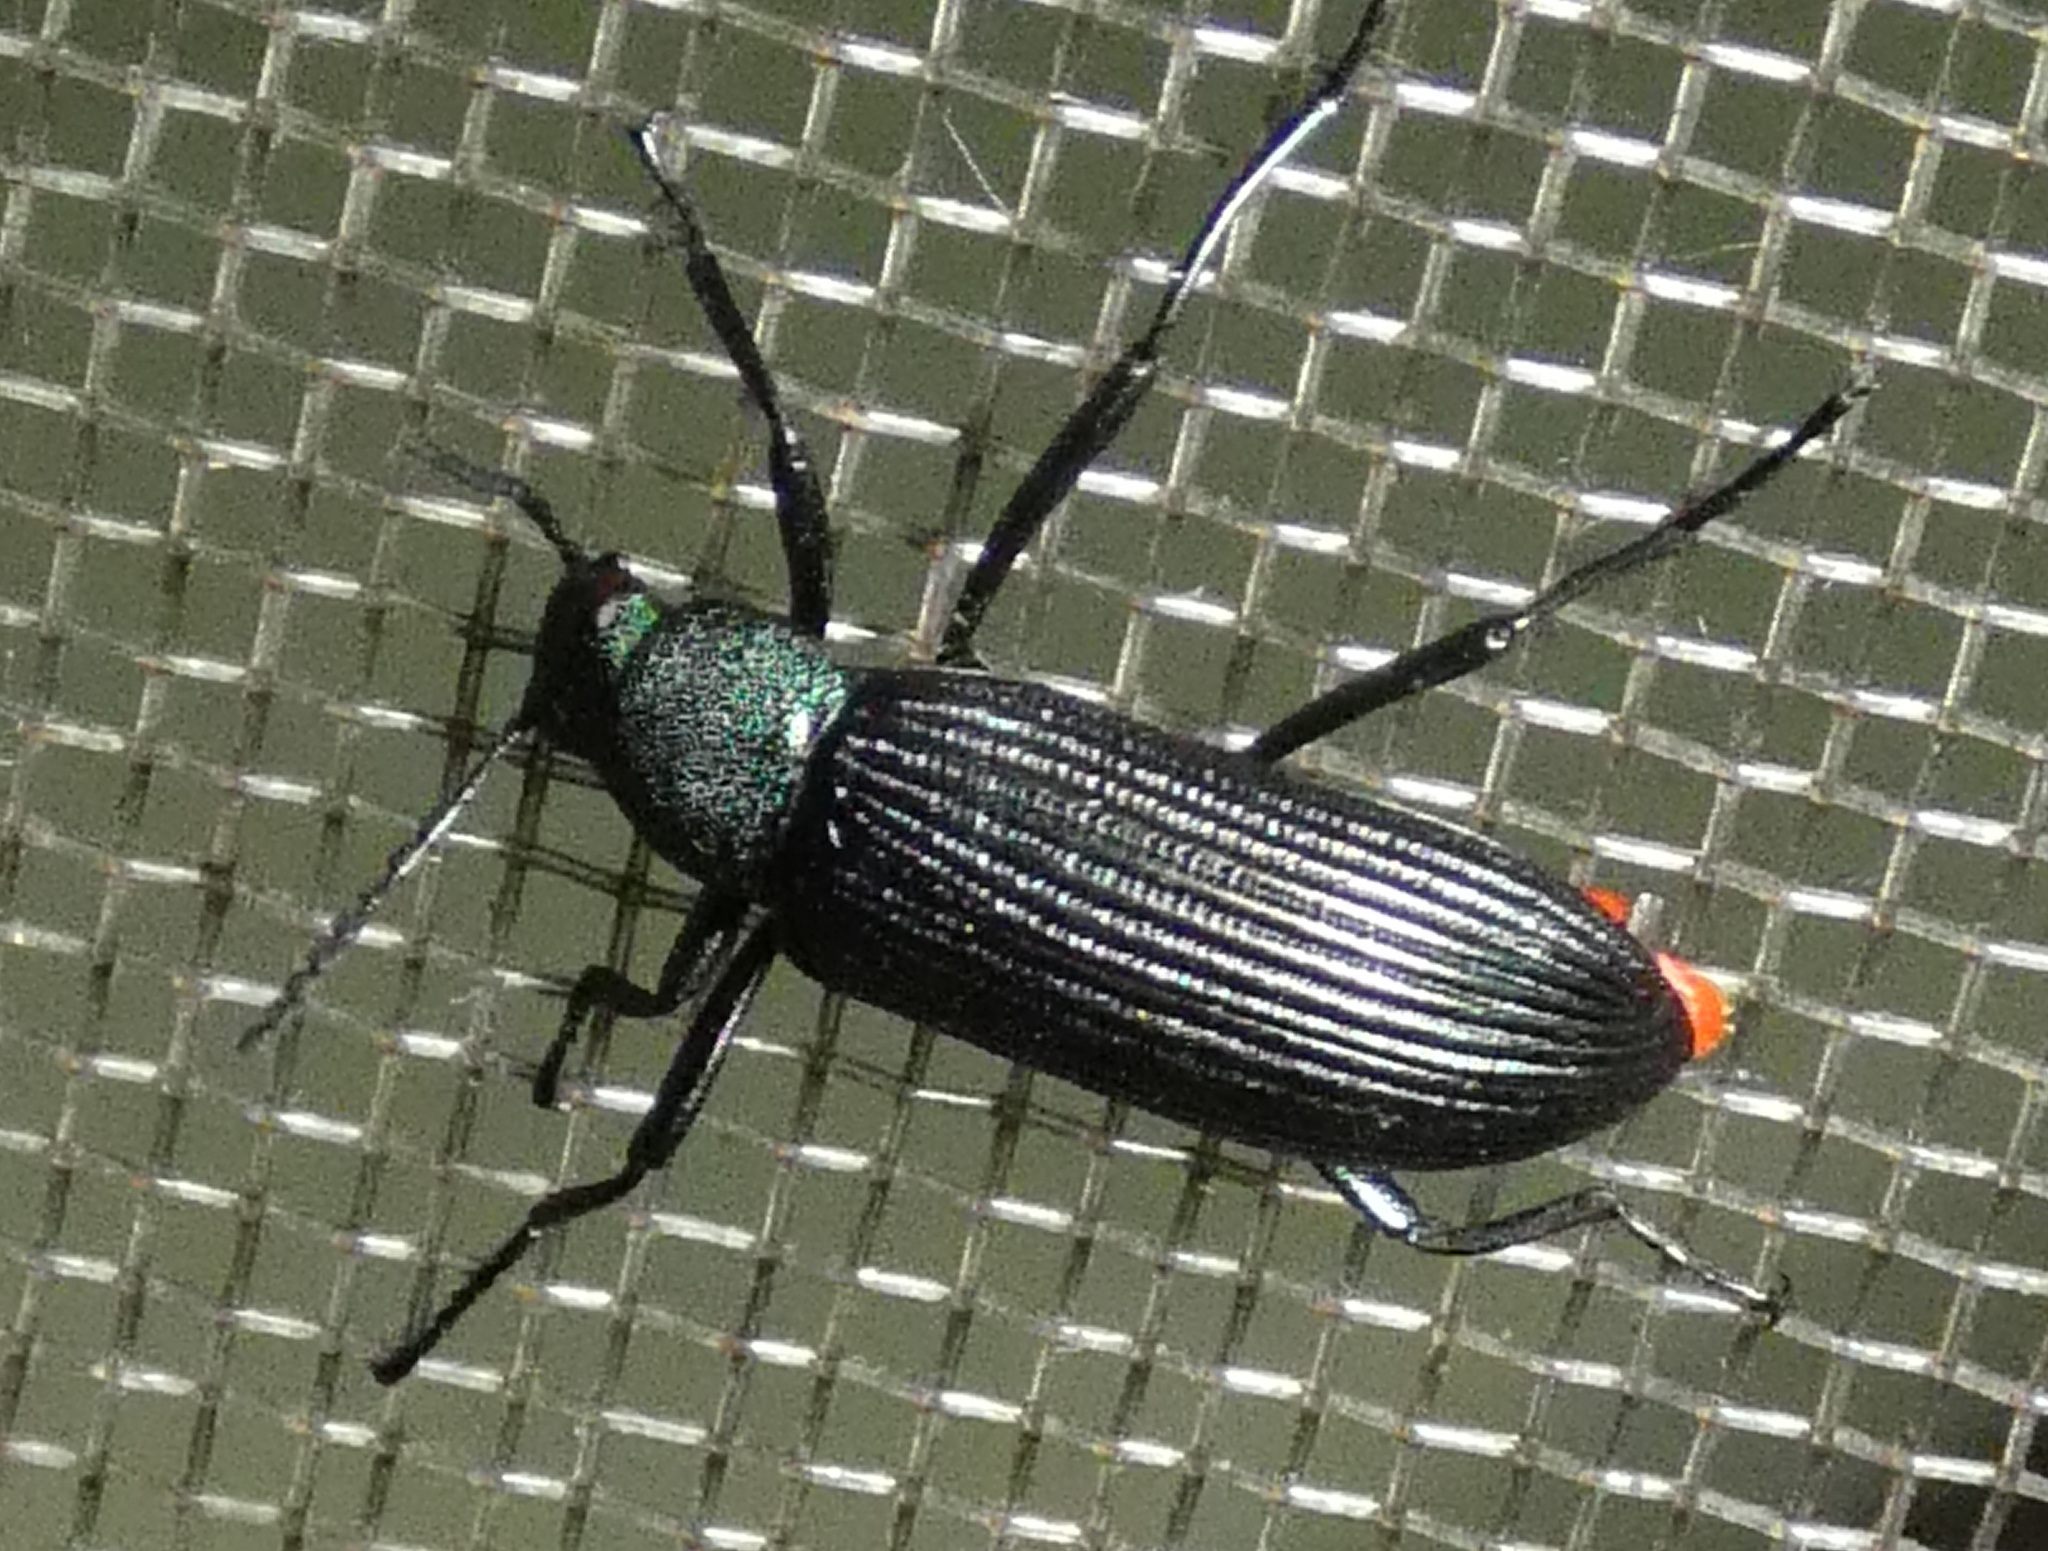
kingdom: Animalia
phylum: Arthropoda
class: Insecta
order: Coleoptera
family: Tenebrionidae
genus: Strongylium
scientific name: Strongylium
